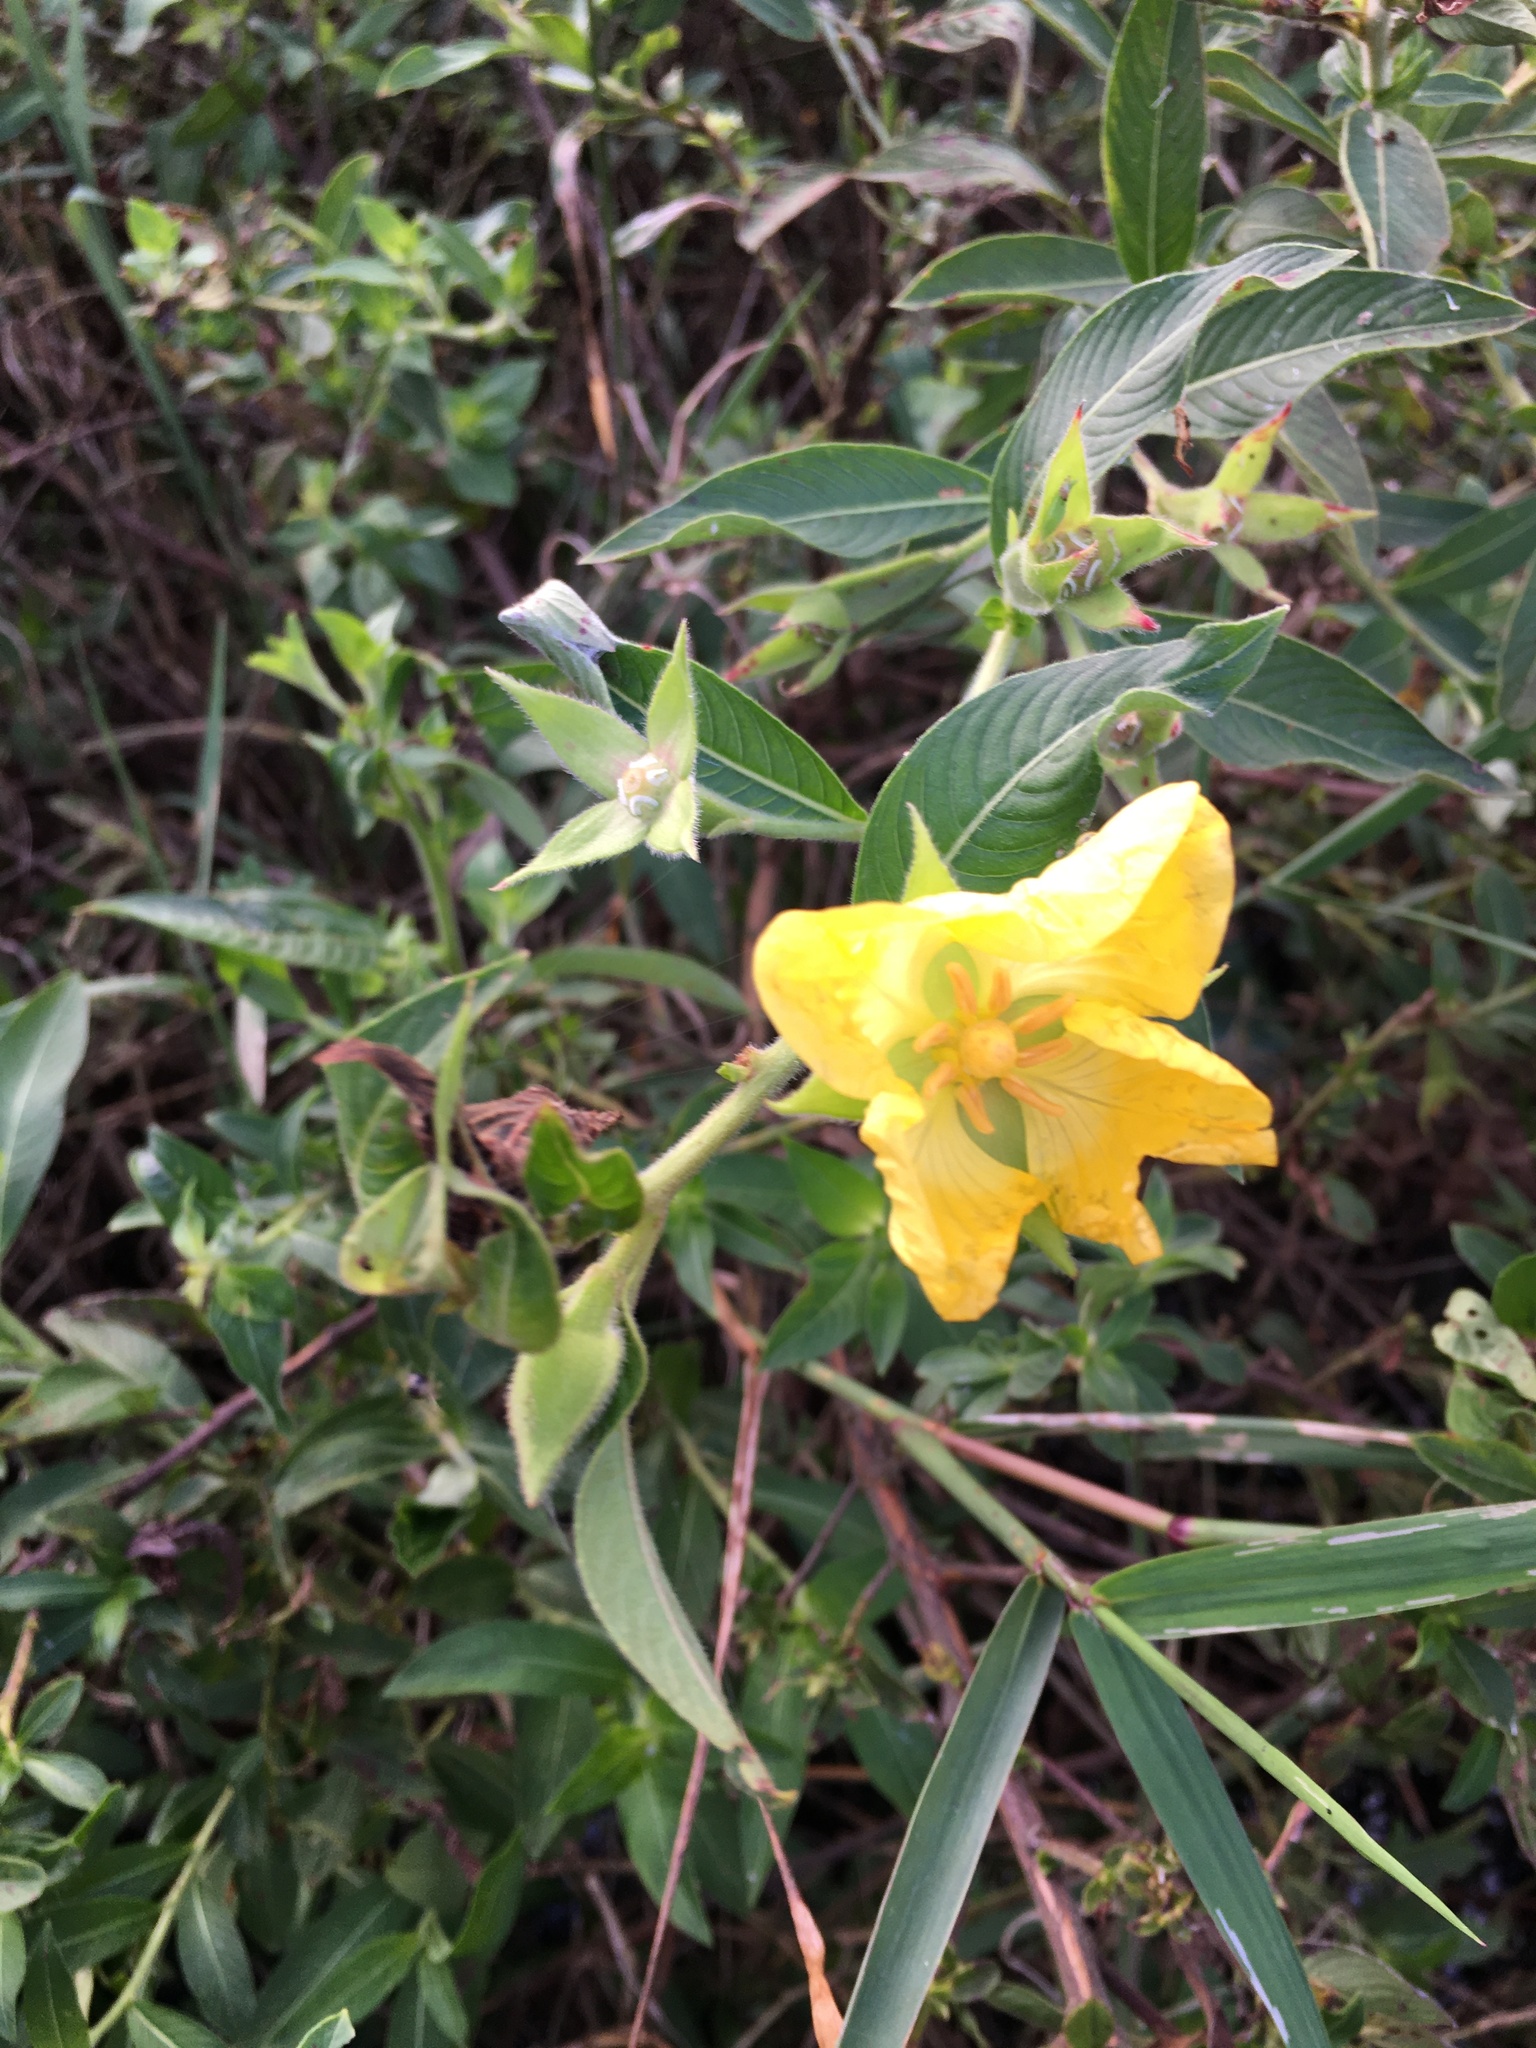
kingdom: Plantae
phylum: Tracheophyta
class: Magnoliopsida
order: Myrtales
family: Onagraceae
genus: Ludwigia
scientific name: Ludwigia peruviana
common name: Peruvian primrose-willow
